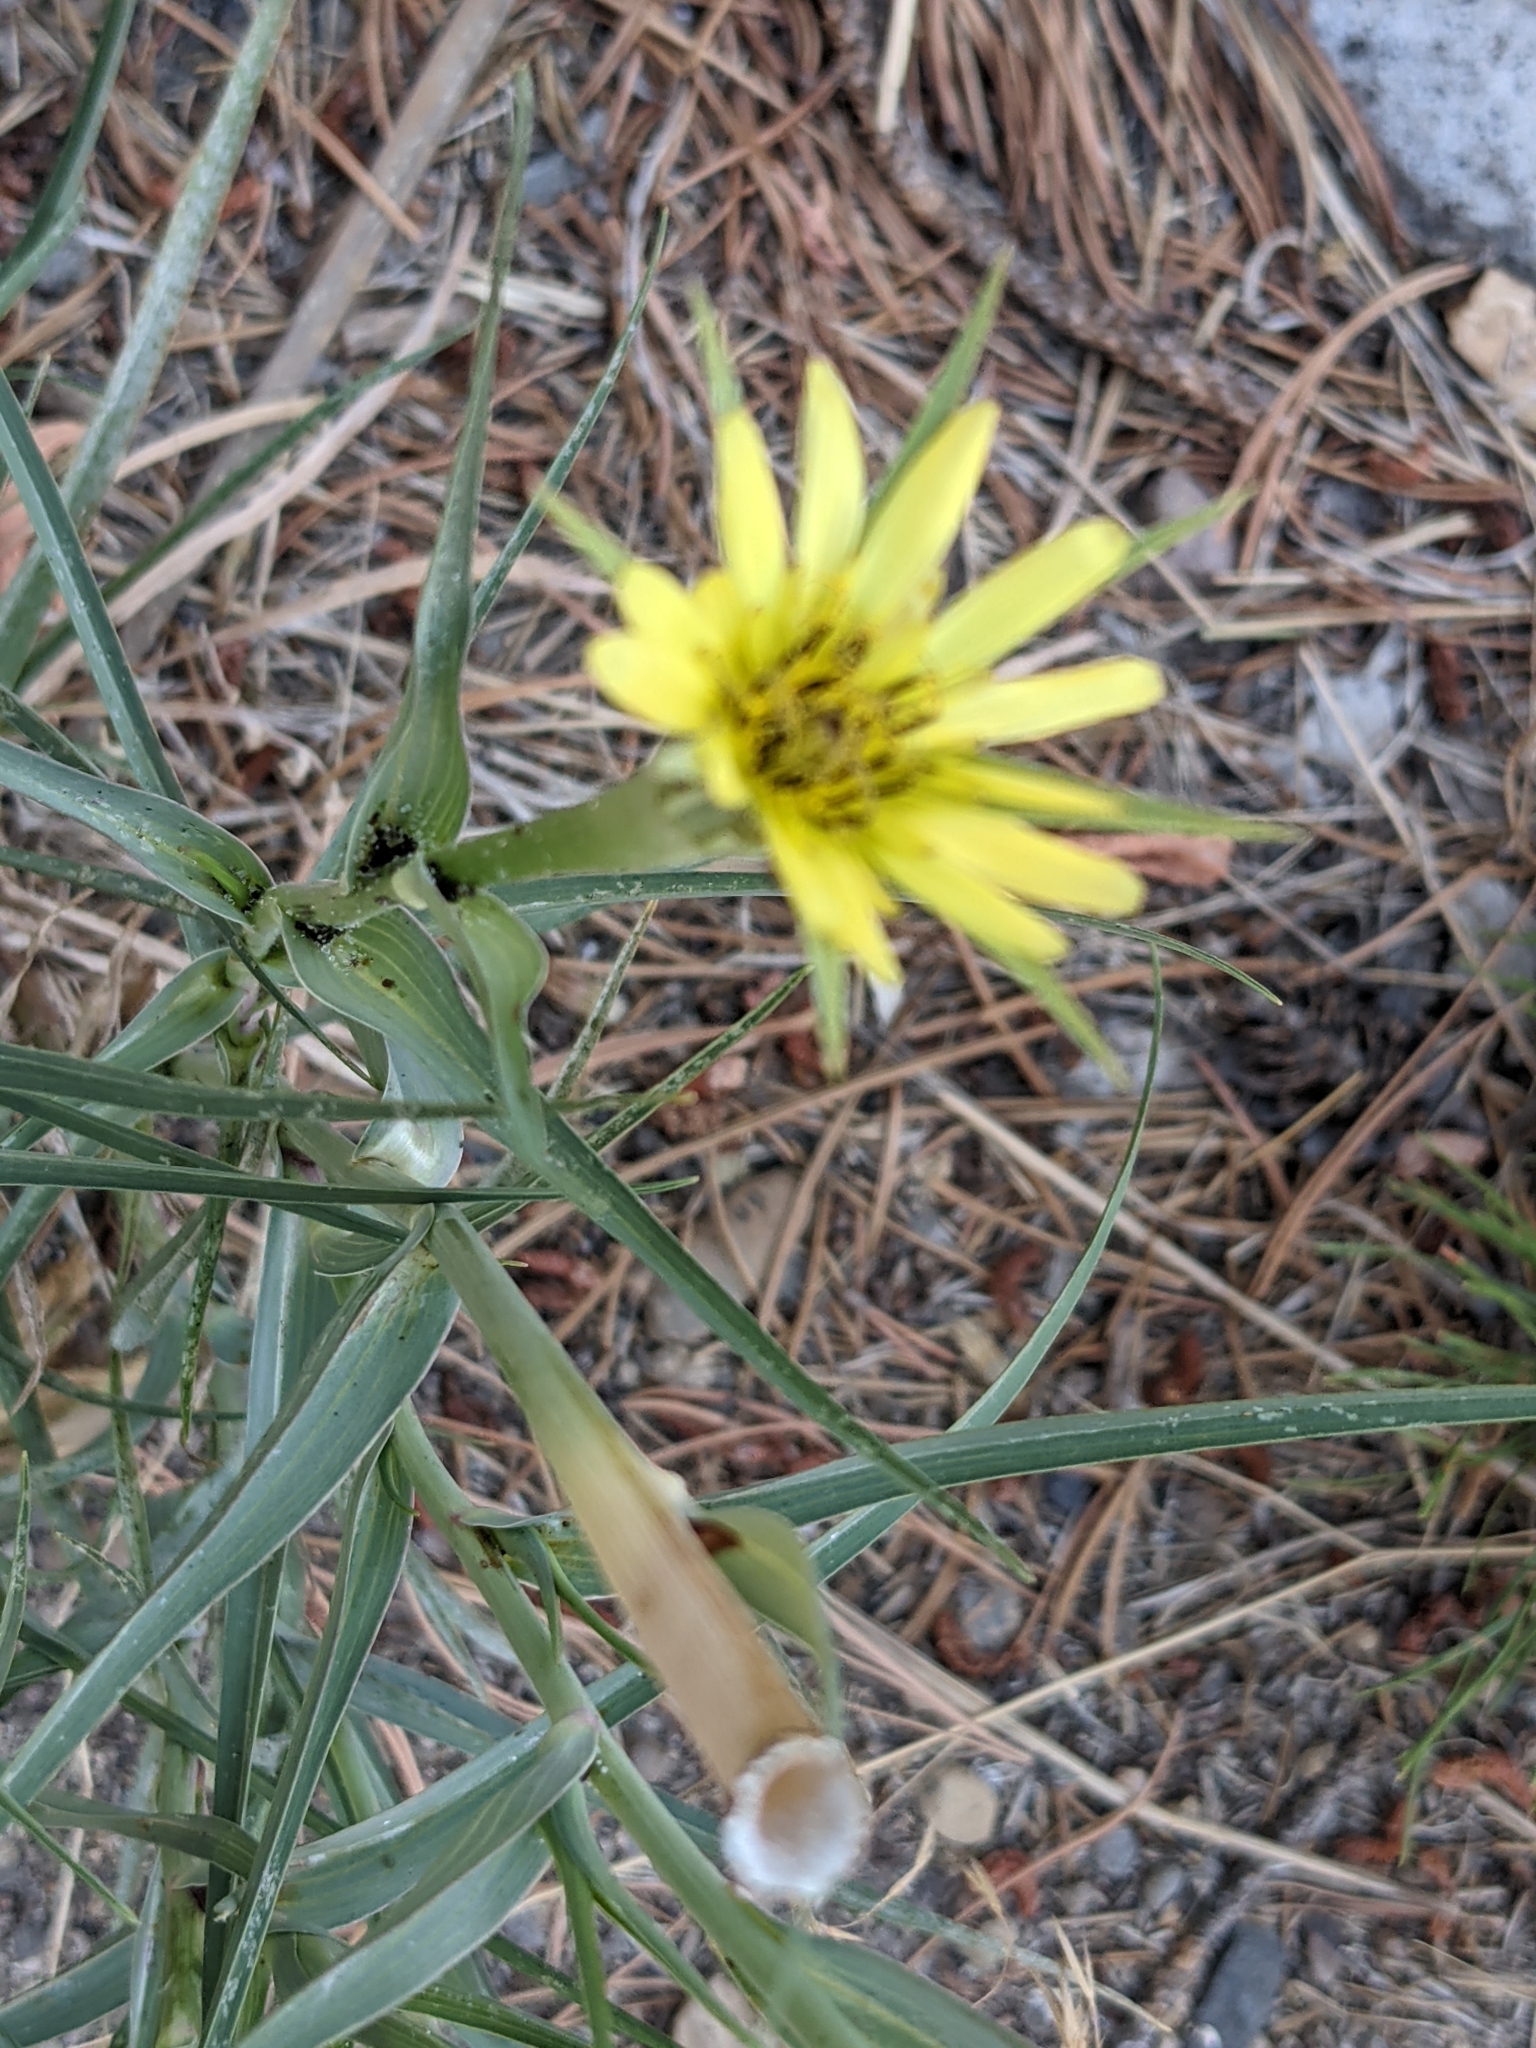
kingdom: Plantae
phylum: Tracheophyta
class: Magnoliopsida
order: Asterales
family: Asteraceae
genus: Tragopogon
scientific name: Tragopogon dubius
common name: Yellow salsify
